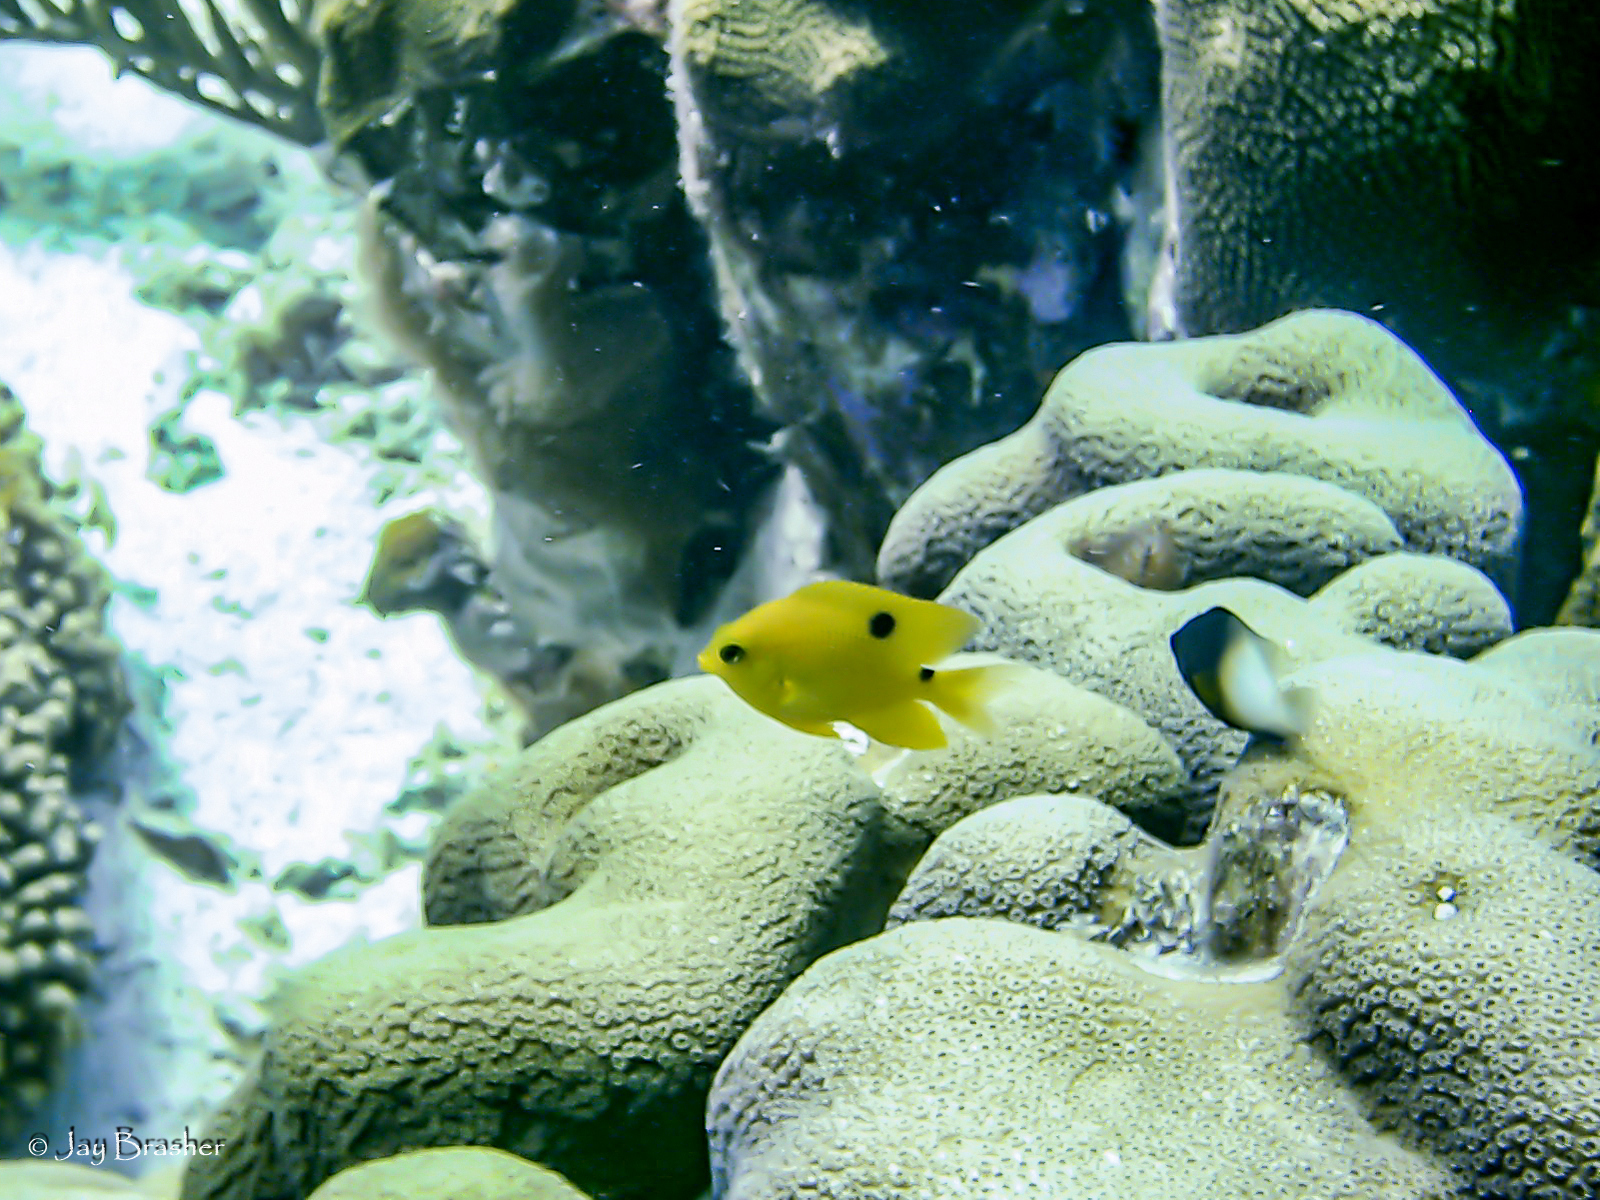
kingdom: Animalia
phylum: Chordata
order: Perciformes
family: Pomacentridae
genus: Stegastes
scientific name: Stegastes partitus
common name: Bicolor damselfish
